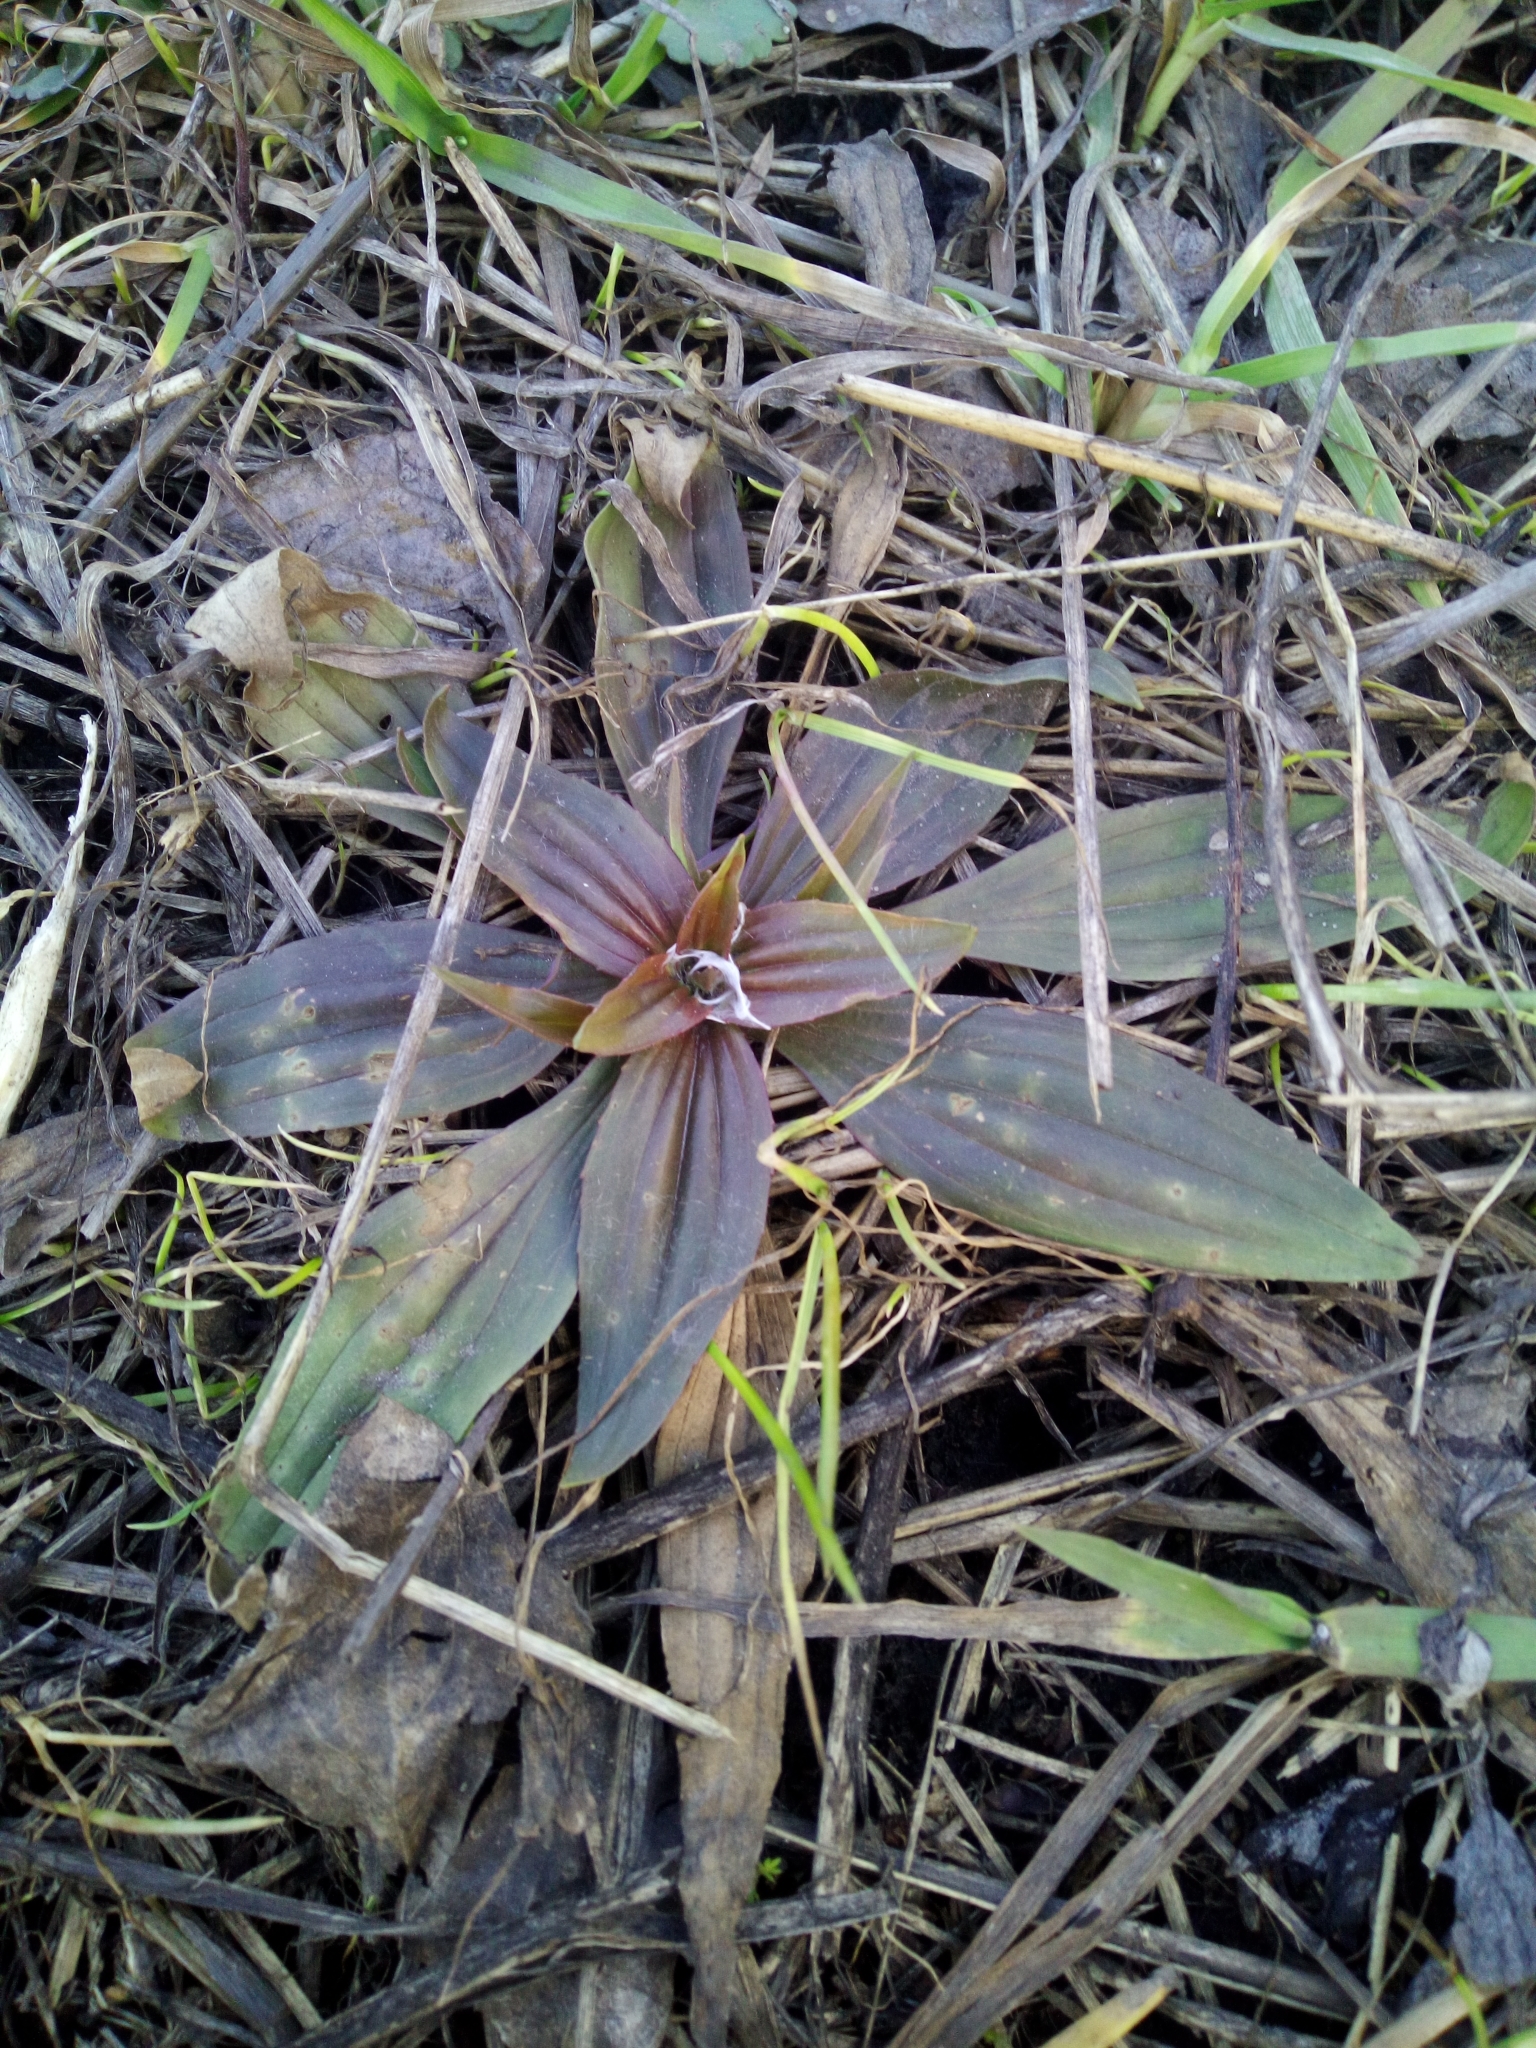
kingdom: Plantae
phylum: Tracheophyta
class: Magnoliopsida
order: Lamiales
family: Plantaginaceae
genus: Plantago
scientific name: Plantago lanceolata
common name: Ribwort plantain
